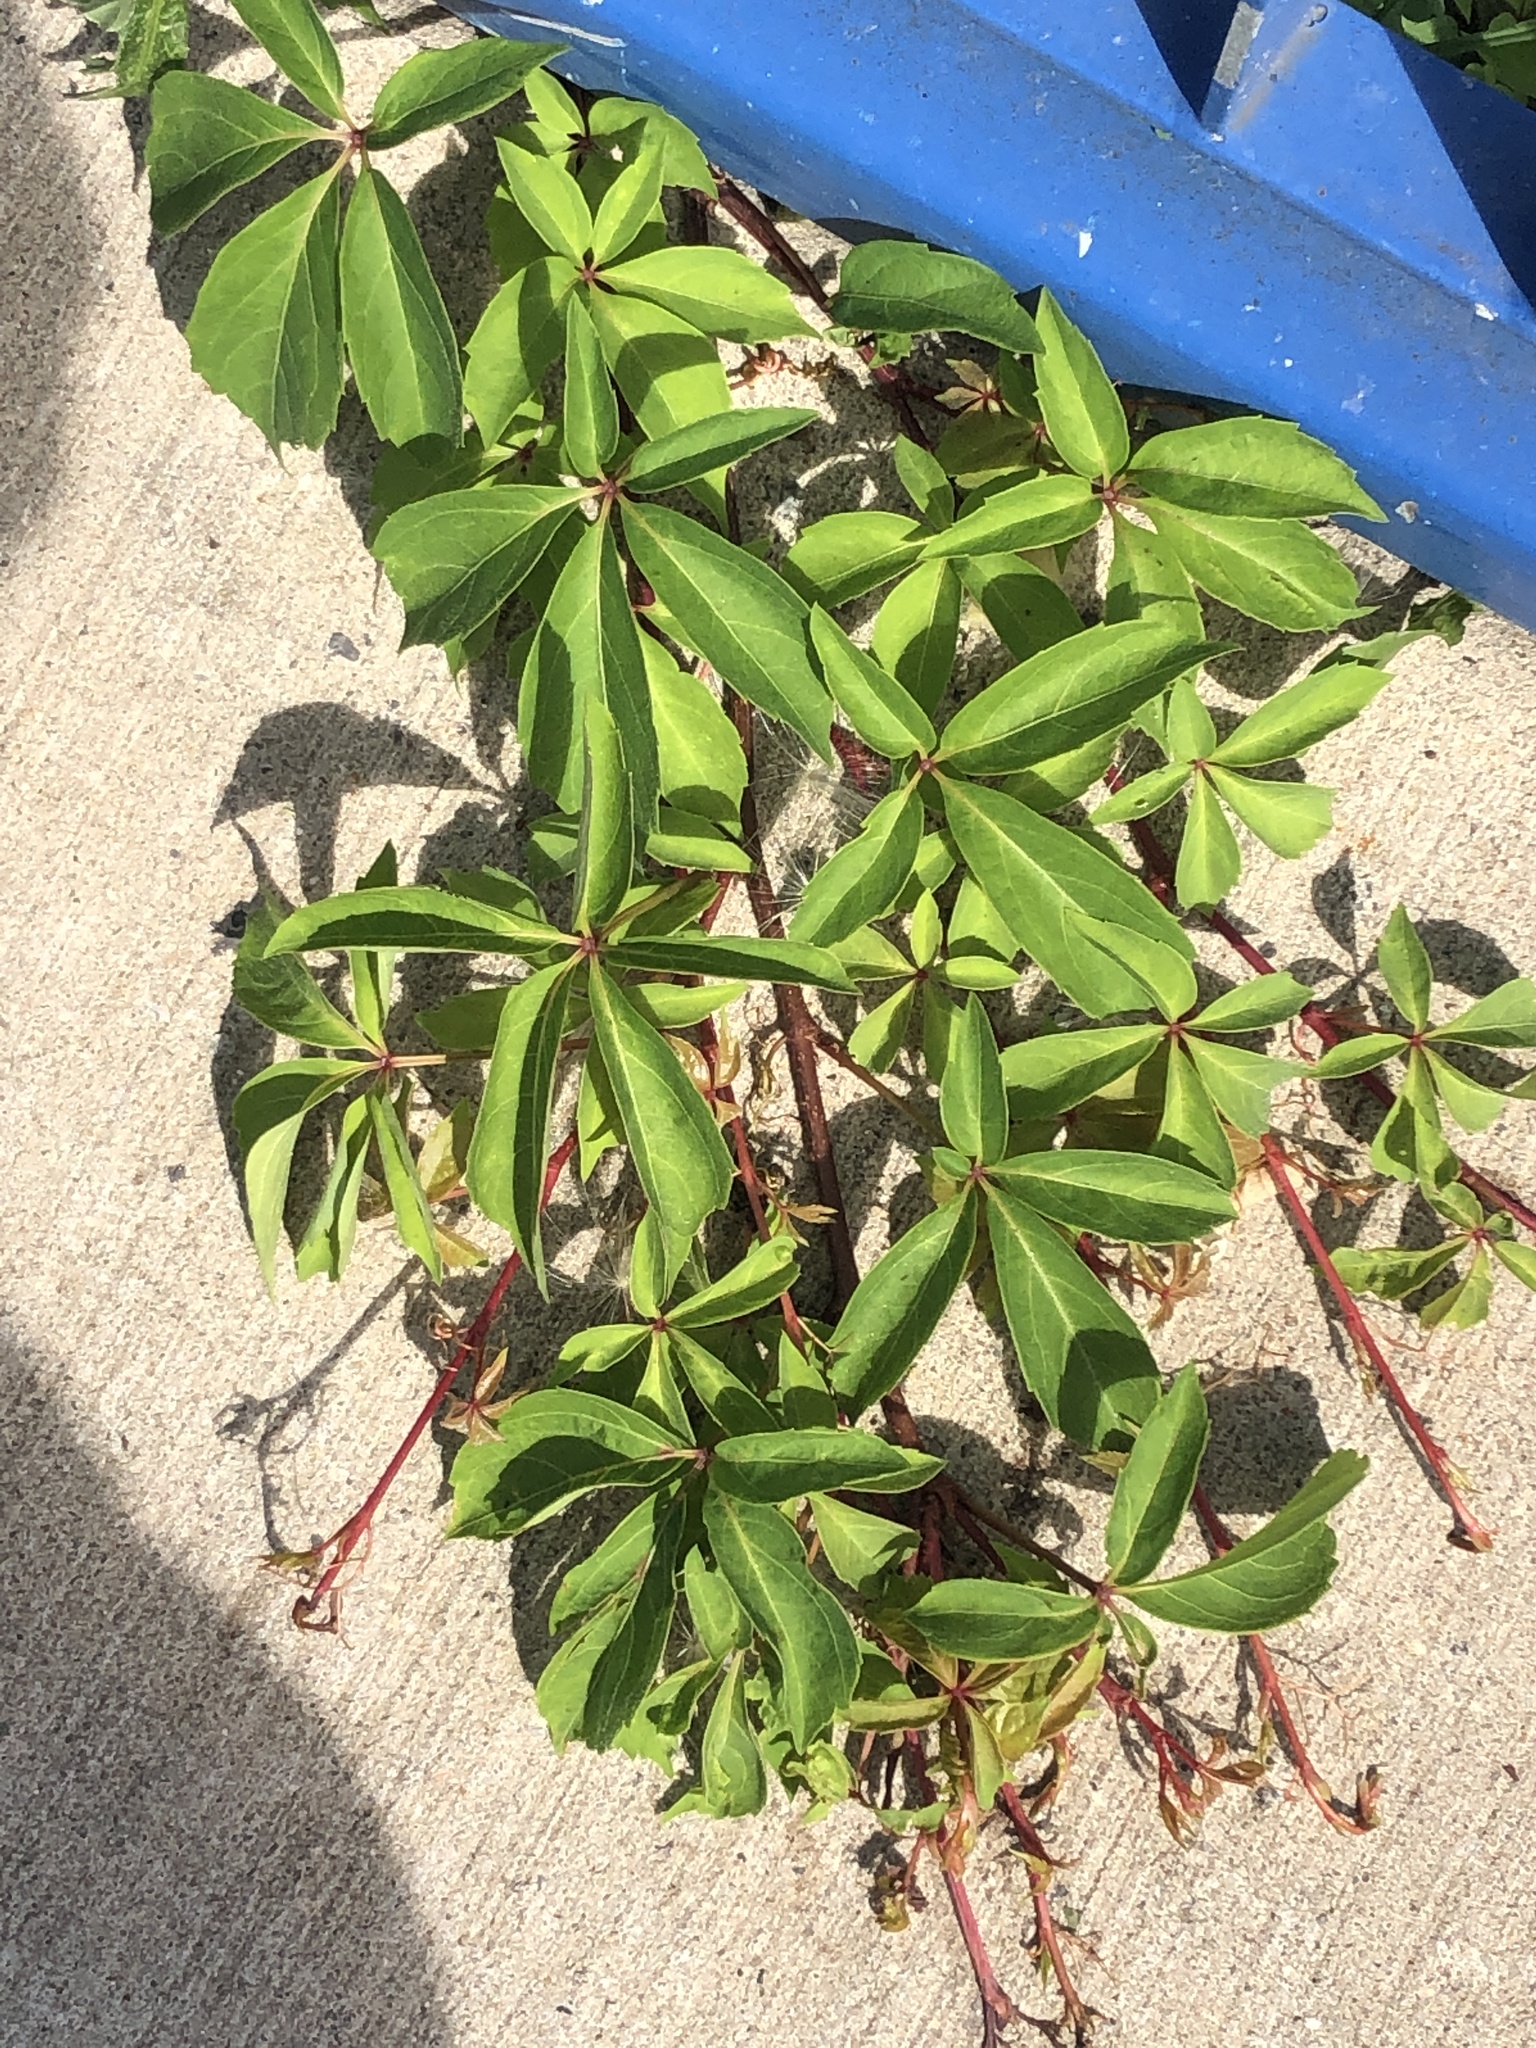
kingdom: Plantae
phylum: Tracheophyta
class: Magnoliopsida
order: Vitales
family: Vitaceae
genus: Parthenocissus
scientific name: Parthenocissus quinquefolia
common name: Virginia-creeper
